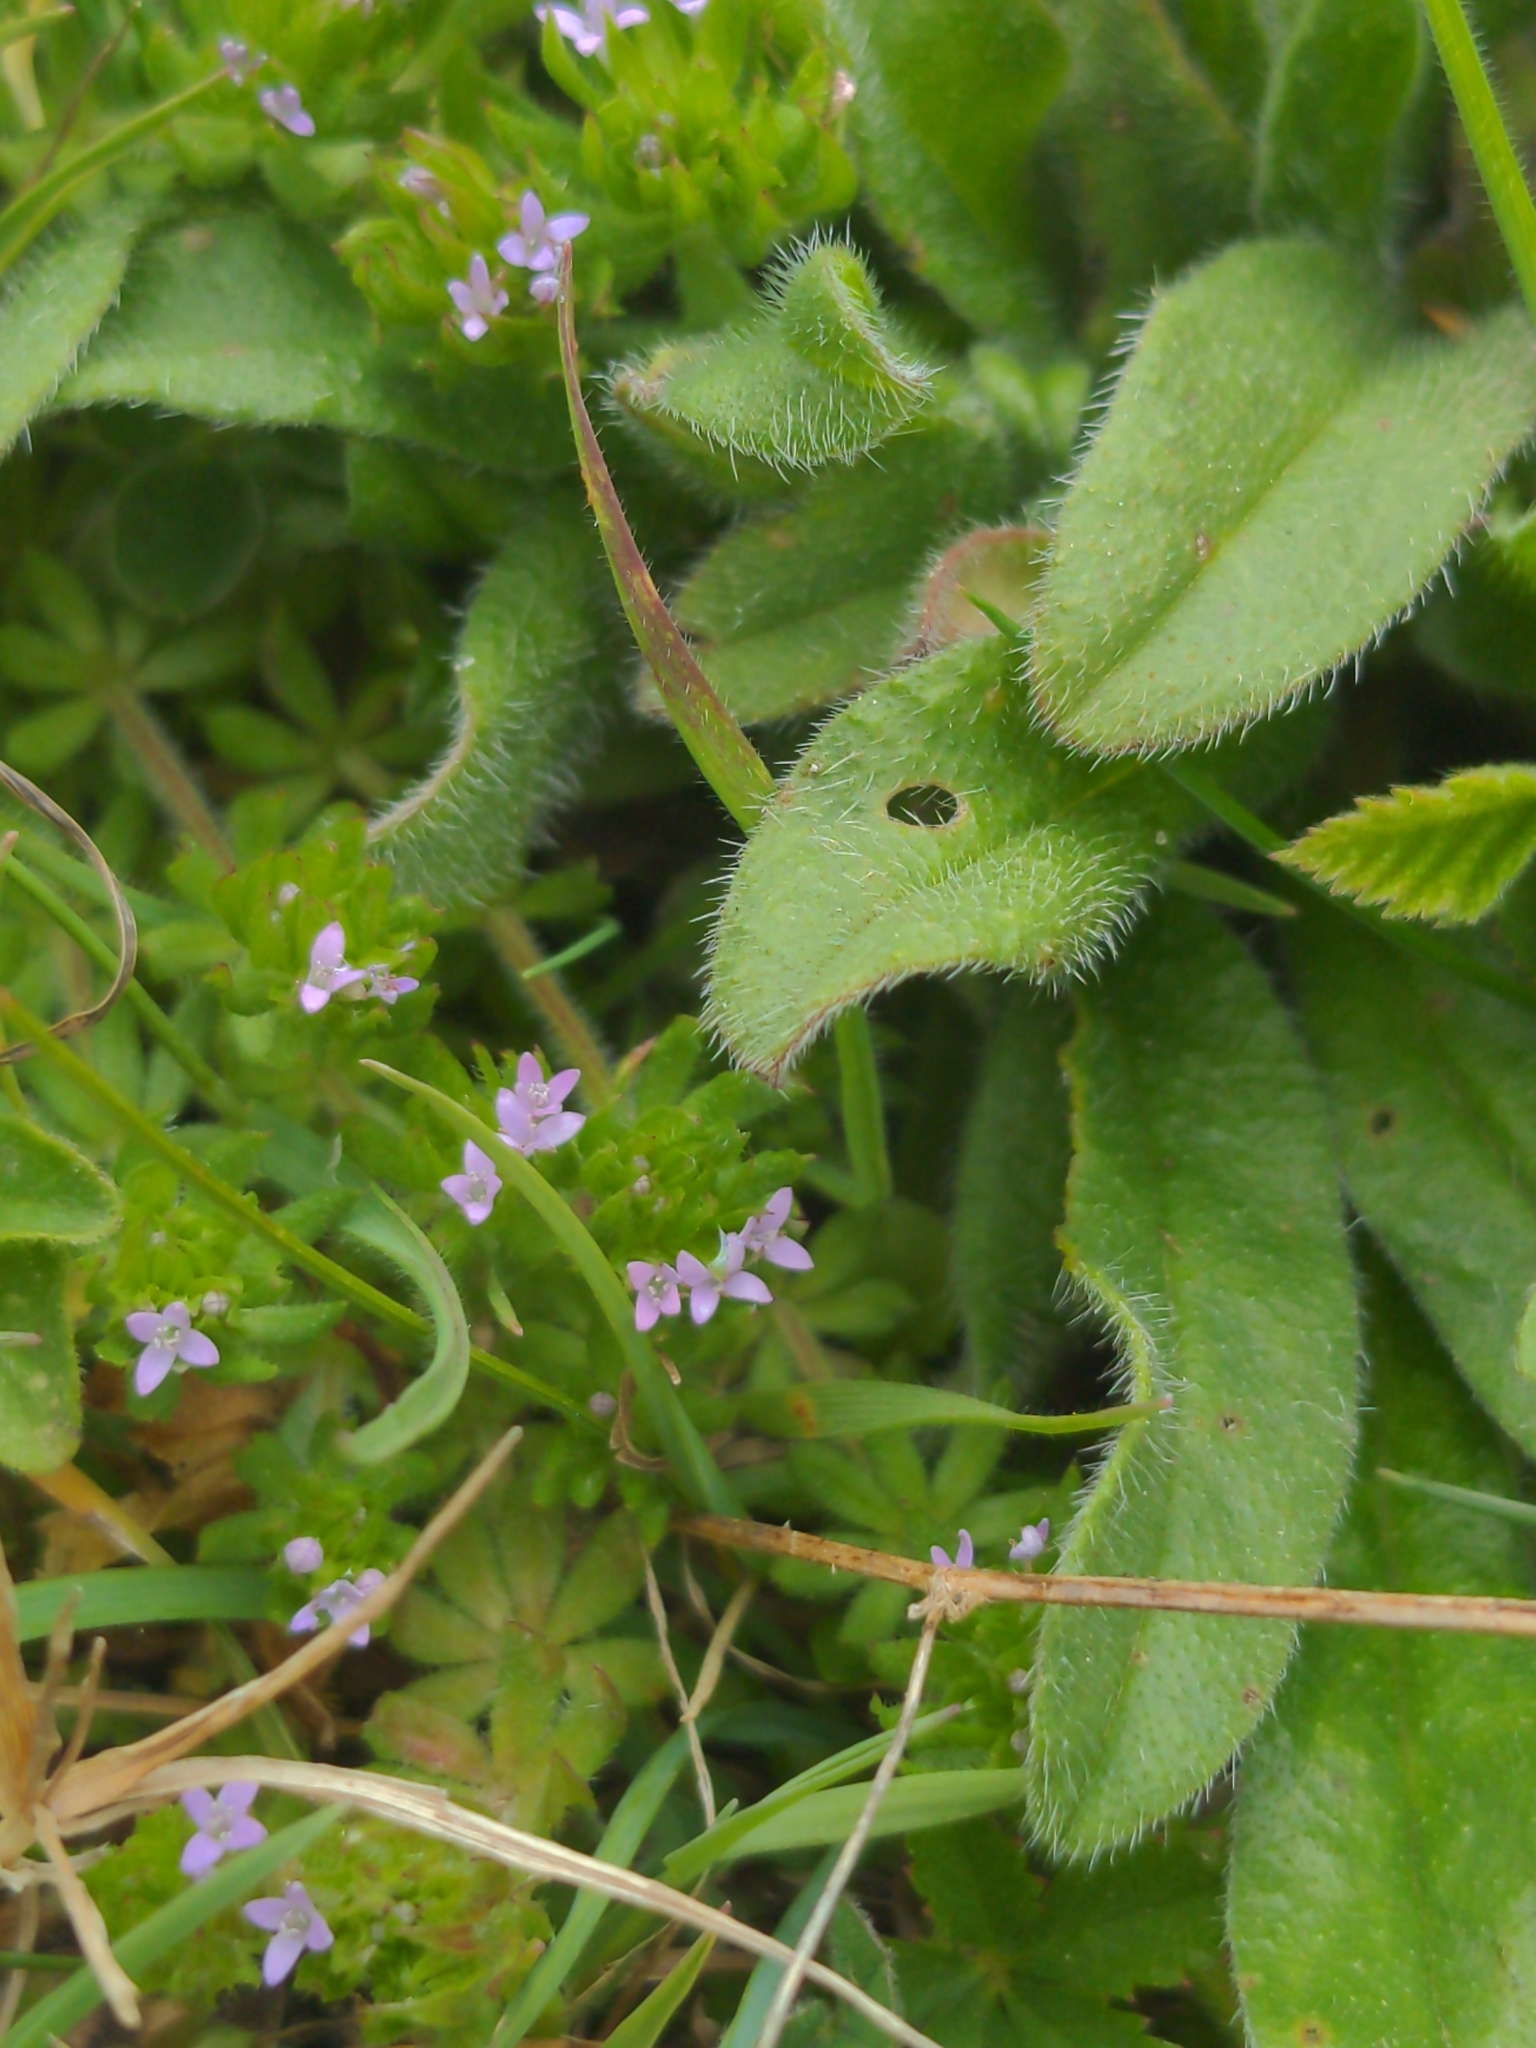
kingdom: Plantae
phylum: Tracheophyta
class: Magnoliopsida
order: Gentianales
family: Rubiaceae
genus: Sherardia
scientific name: Sherardia arvensis
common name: Field madder
